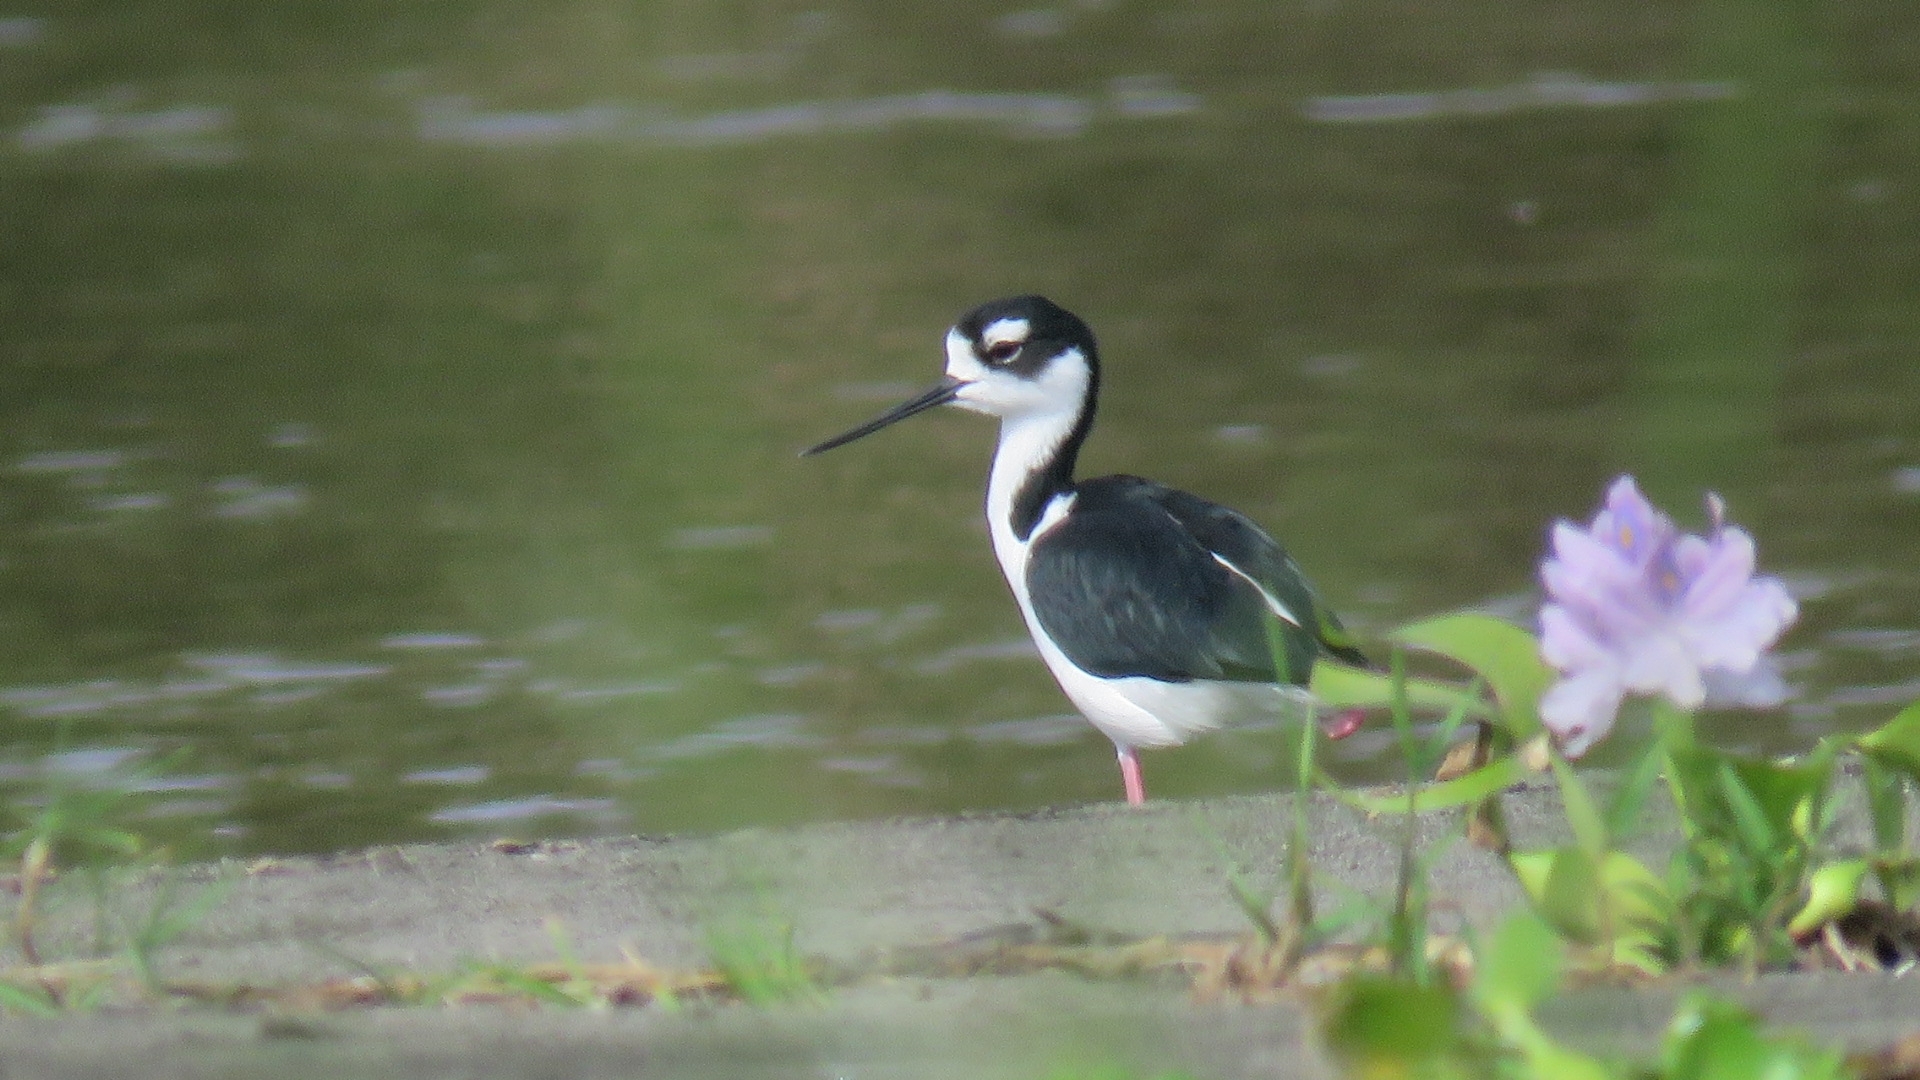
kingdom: Animalia
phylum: Chordata
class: Aves
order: Charadriiformes
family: Recurvirostridae
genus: Himantopus
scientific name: Himantopus mexicanus
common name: Black-necked stilt
